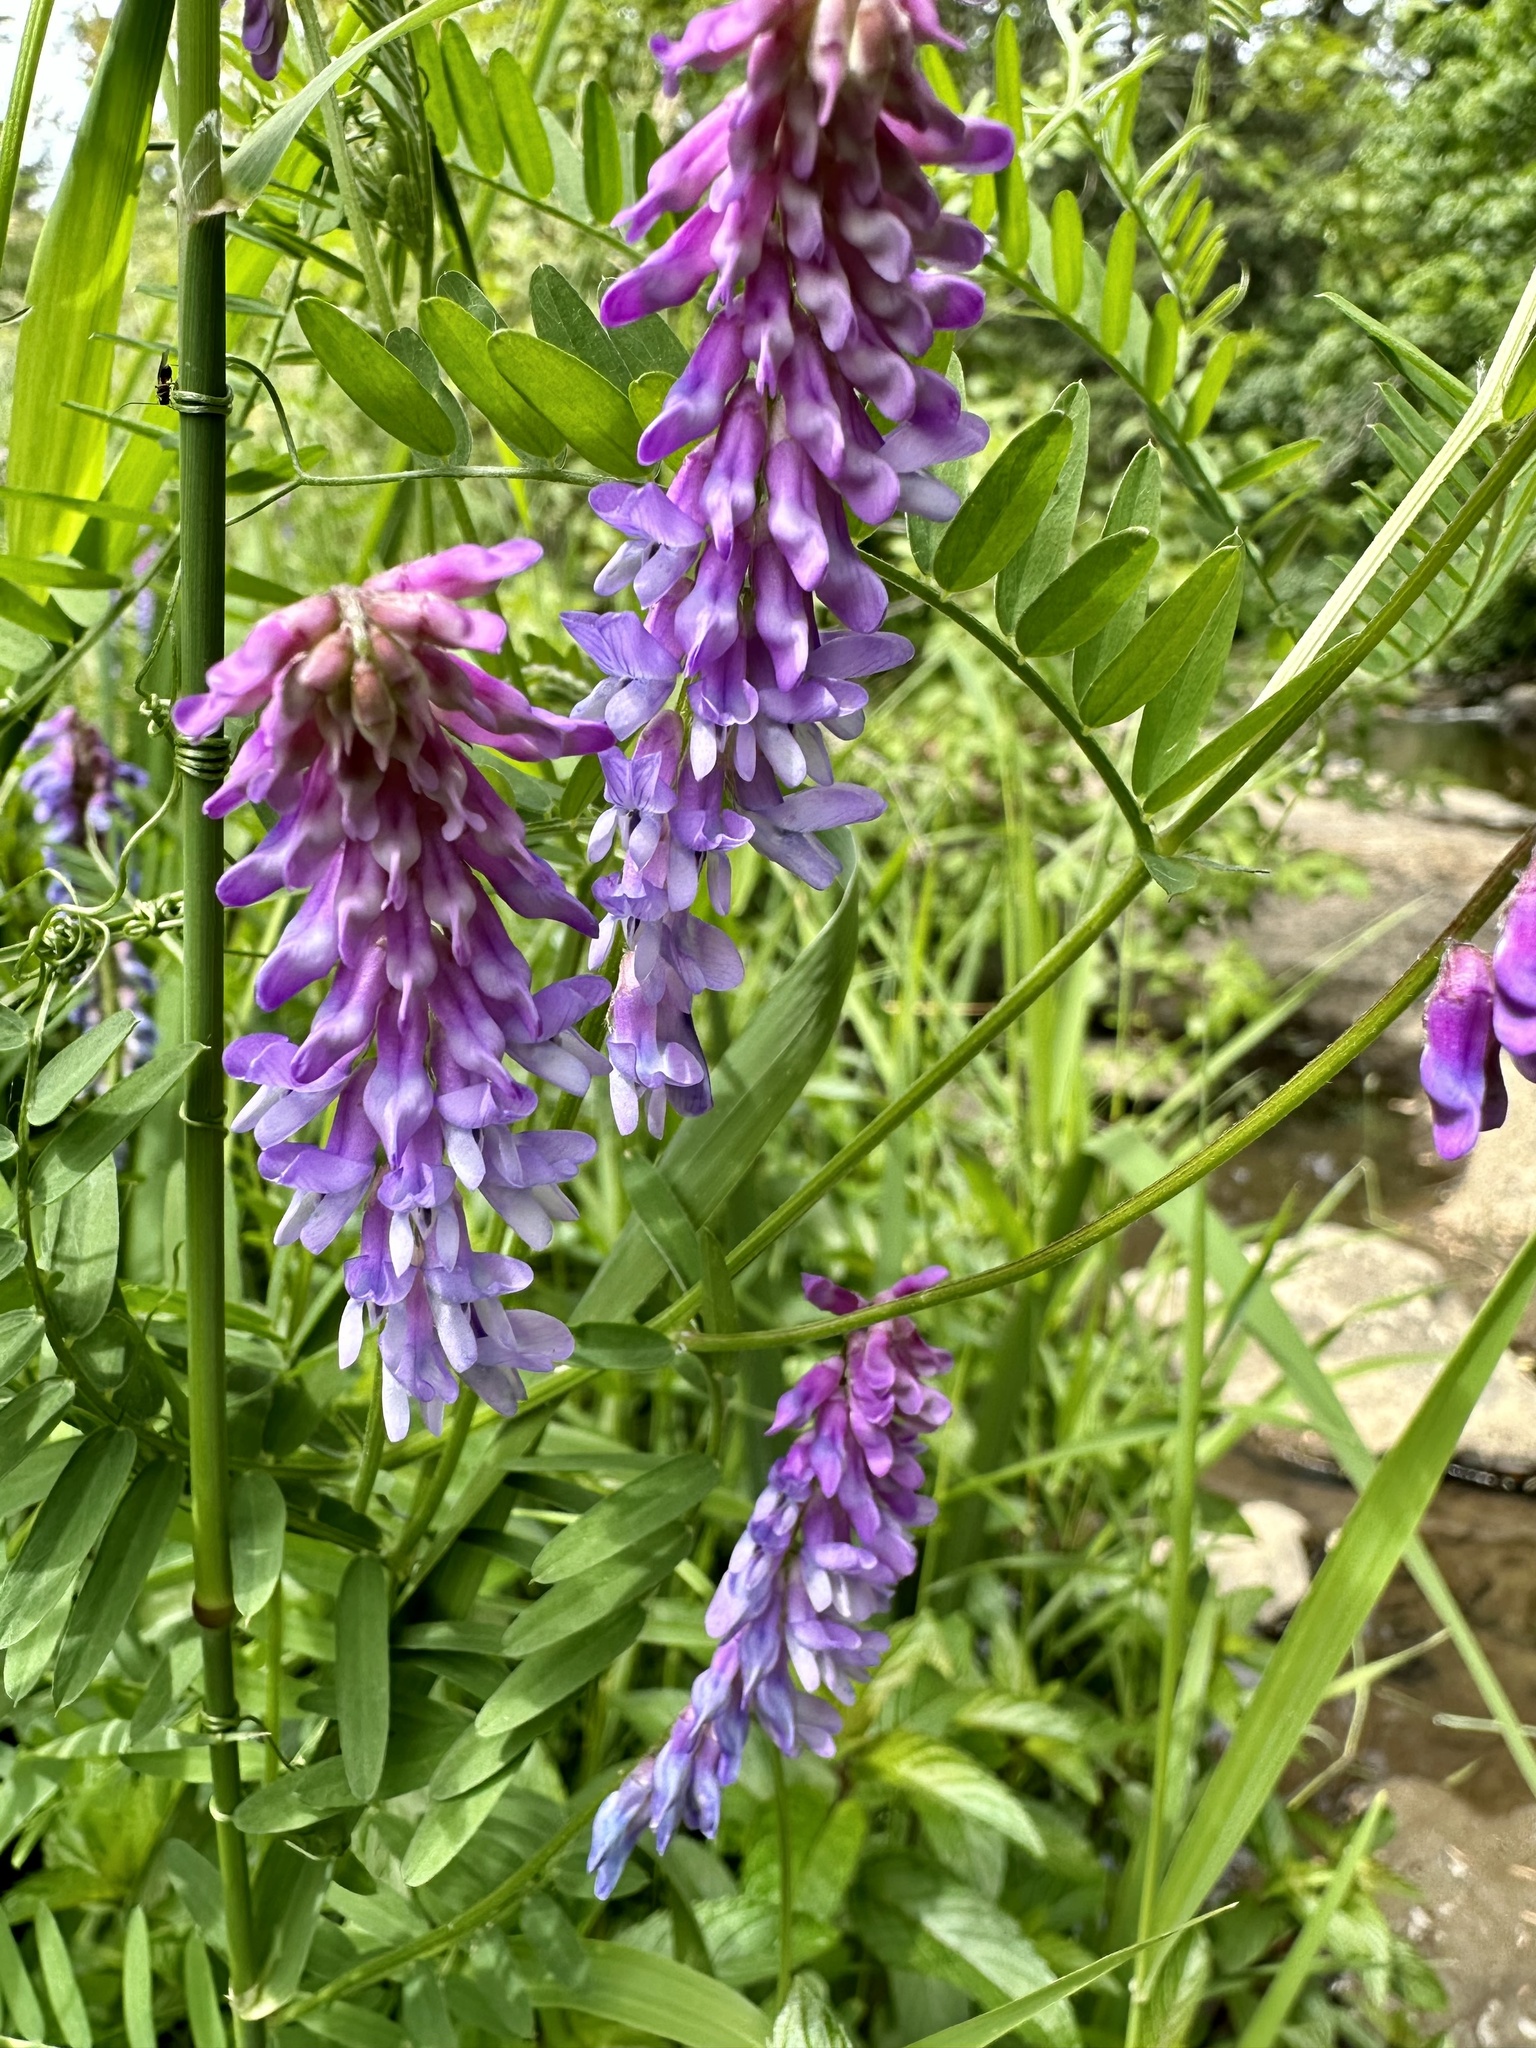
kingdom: Plantae
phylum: Tracheophyta
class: Magnoliopsida
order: Fabales
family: Fabaceae
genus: Vicia
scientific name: Vicia cracca
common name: Bird vetch
